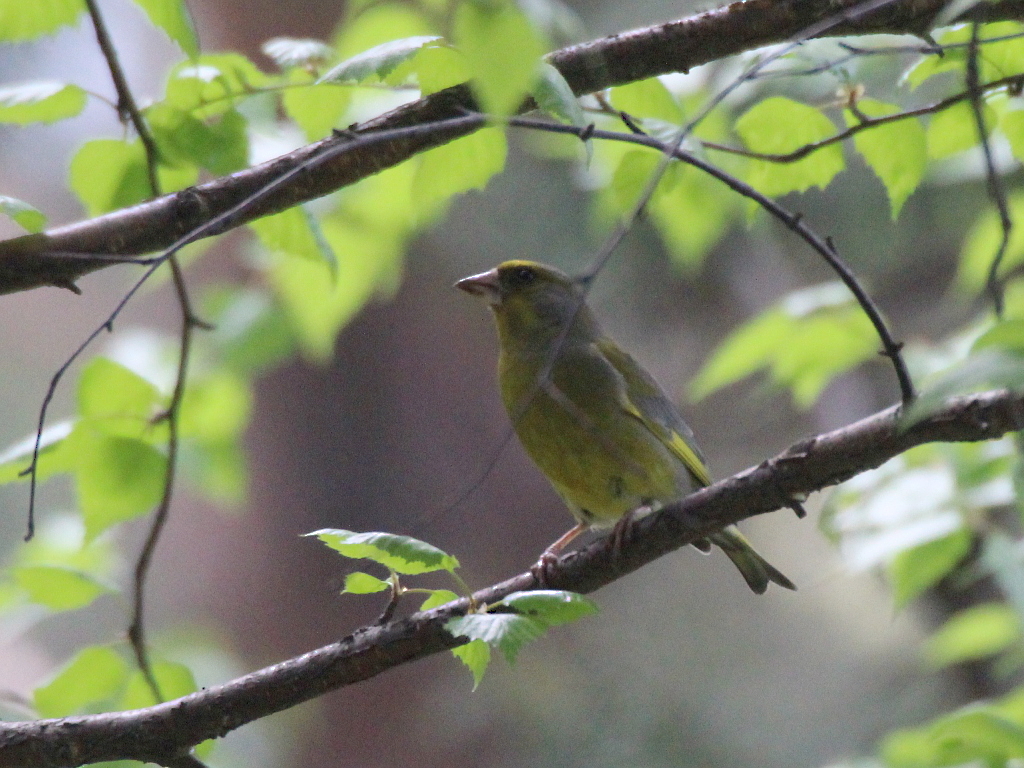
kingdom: Plantae
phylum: Tracheophyta
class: Liliopsida
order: Poales
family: Poaceae
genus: Chloris
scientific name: Chloris chloris
